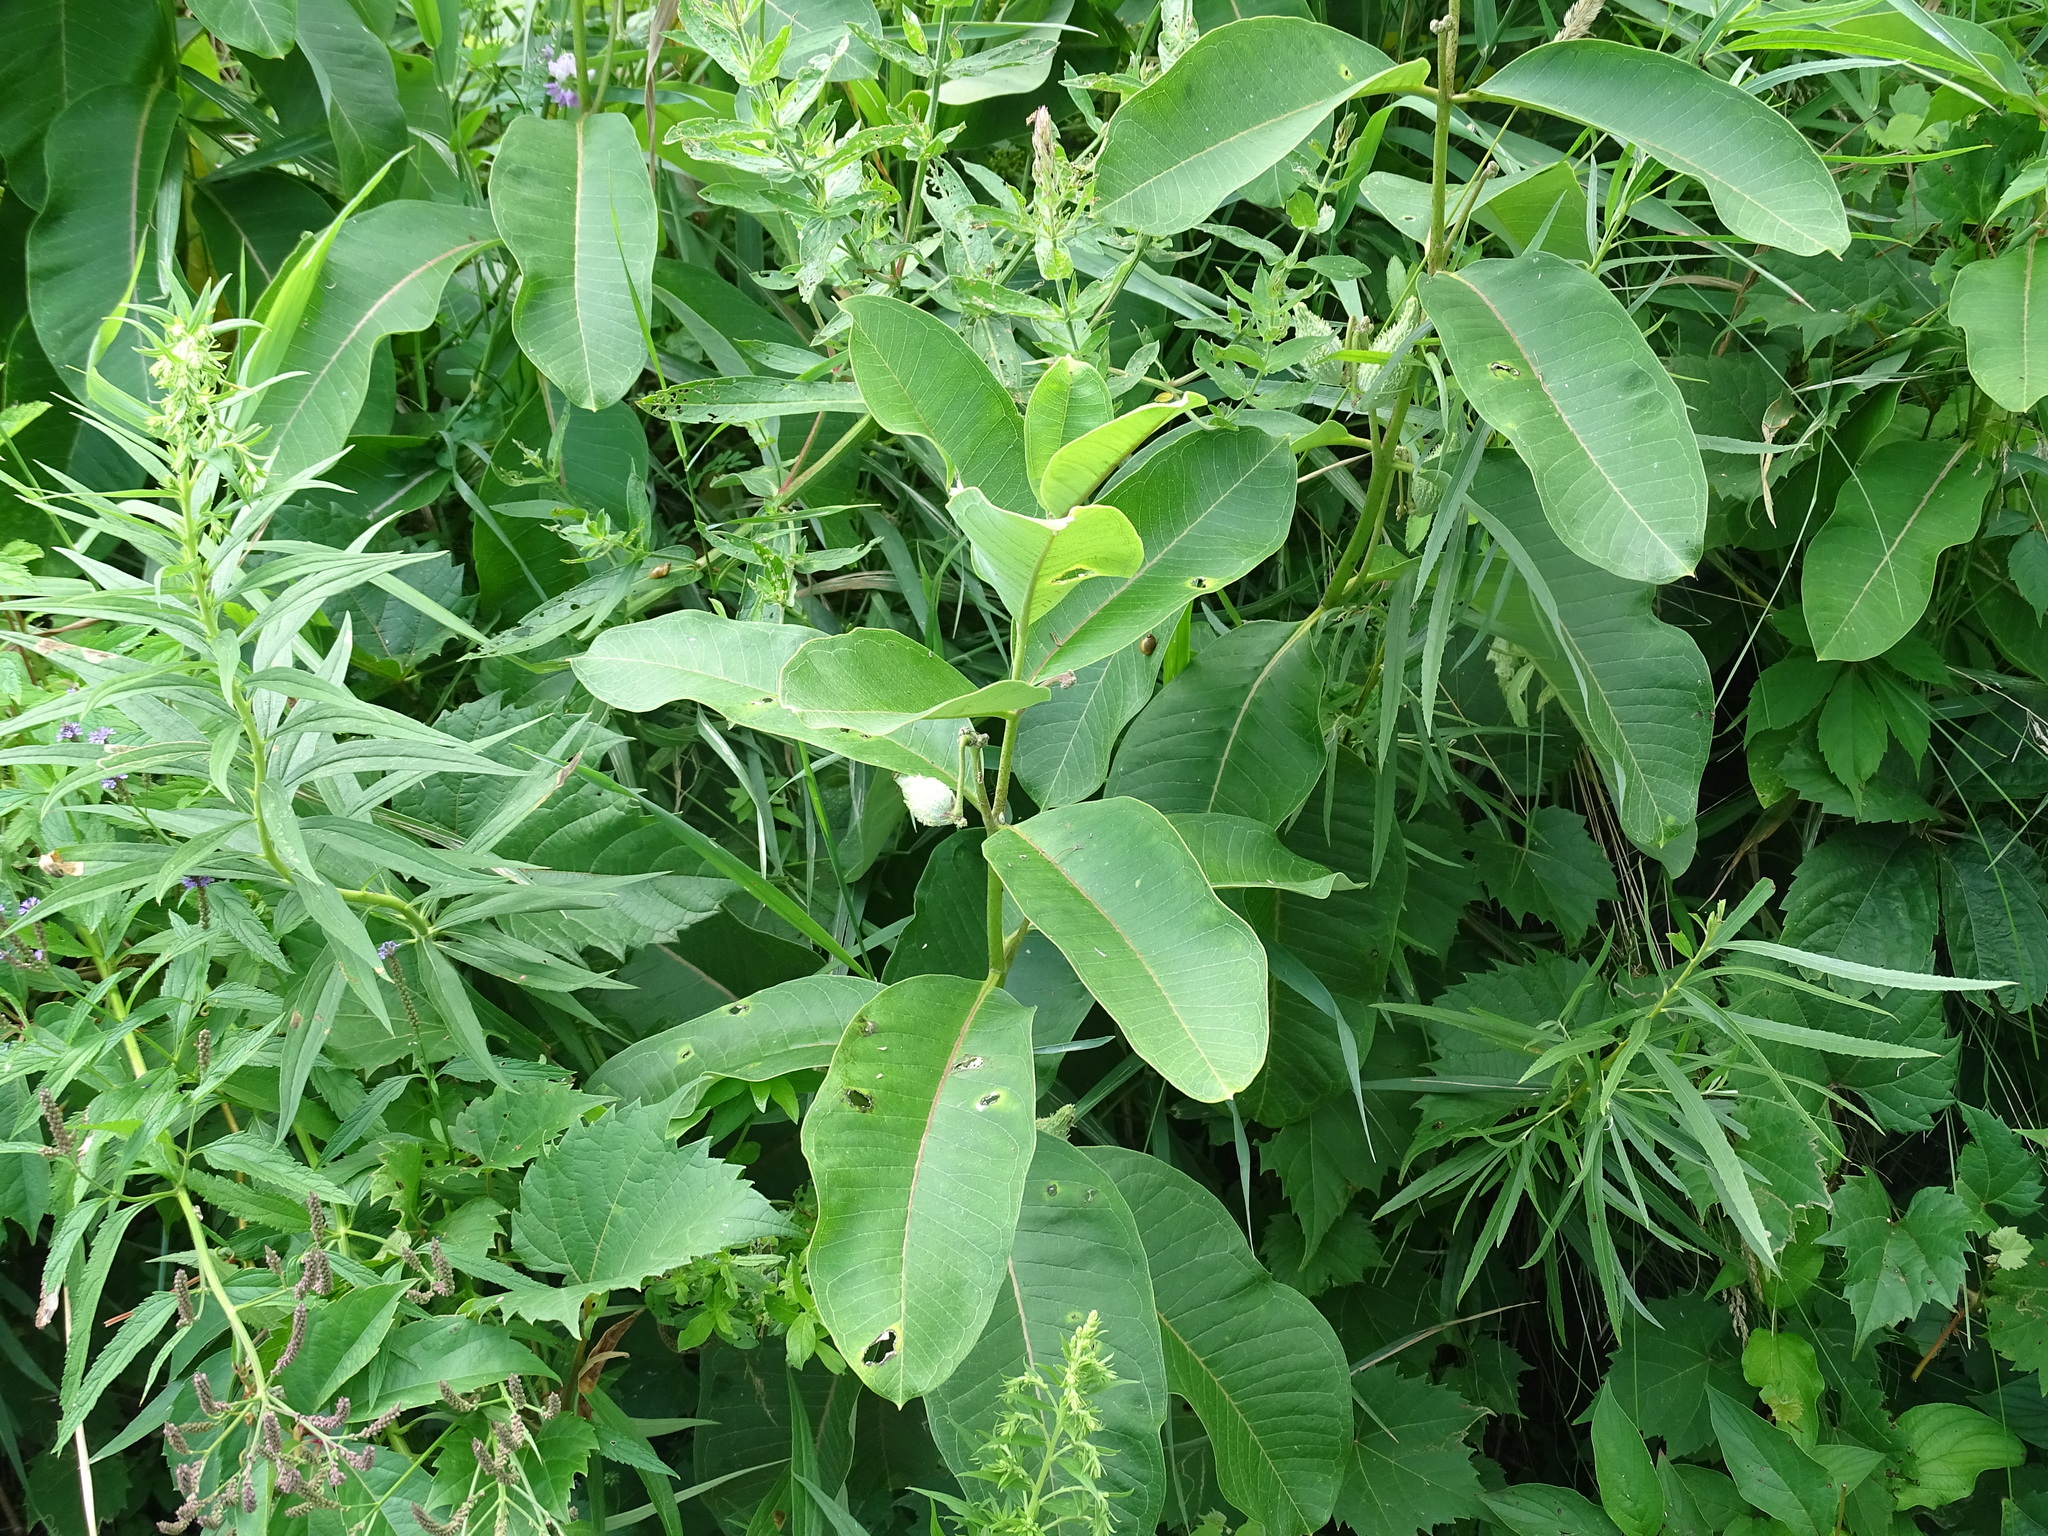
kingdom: Plantae
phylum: Tracheophyta
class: Magnoliopsida
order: Gentianales
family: Apocynaceae
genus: Asclepias
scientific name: Asclepias syriaca
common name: Common milkweed
